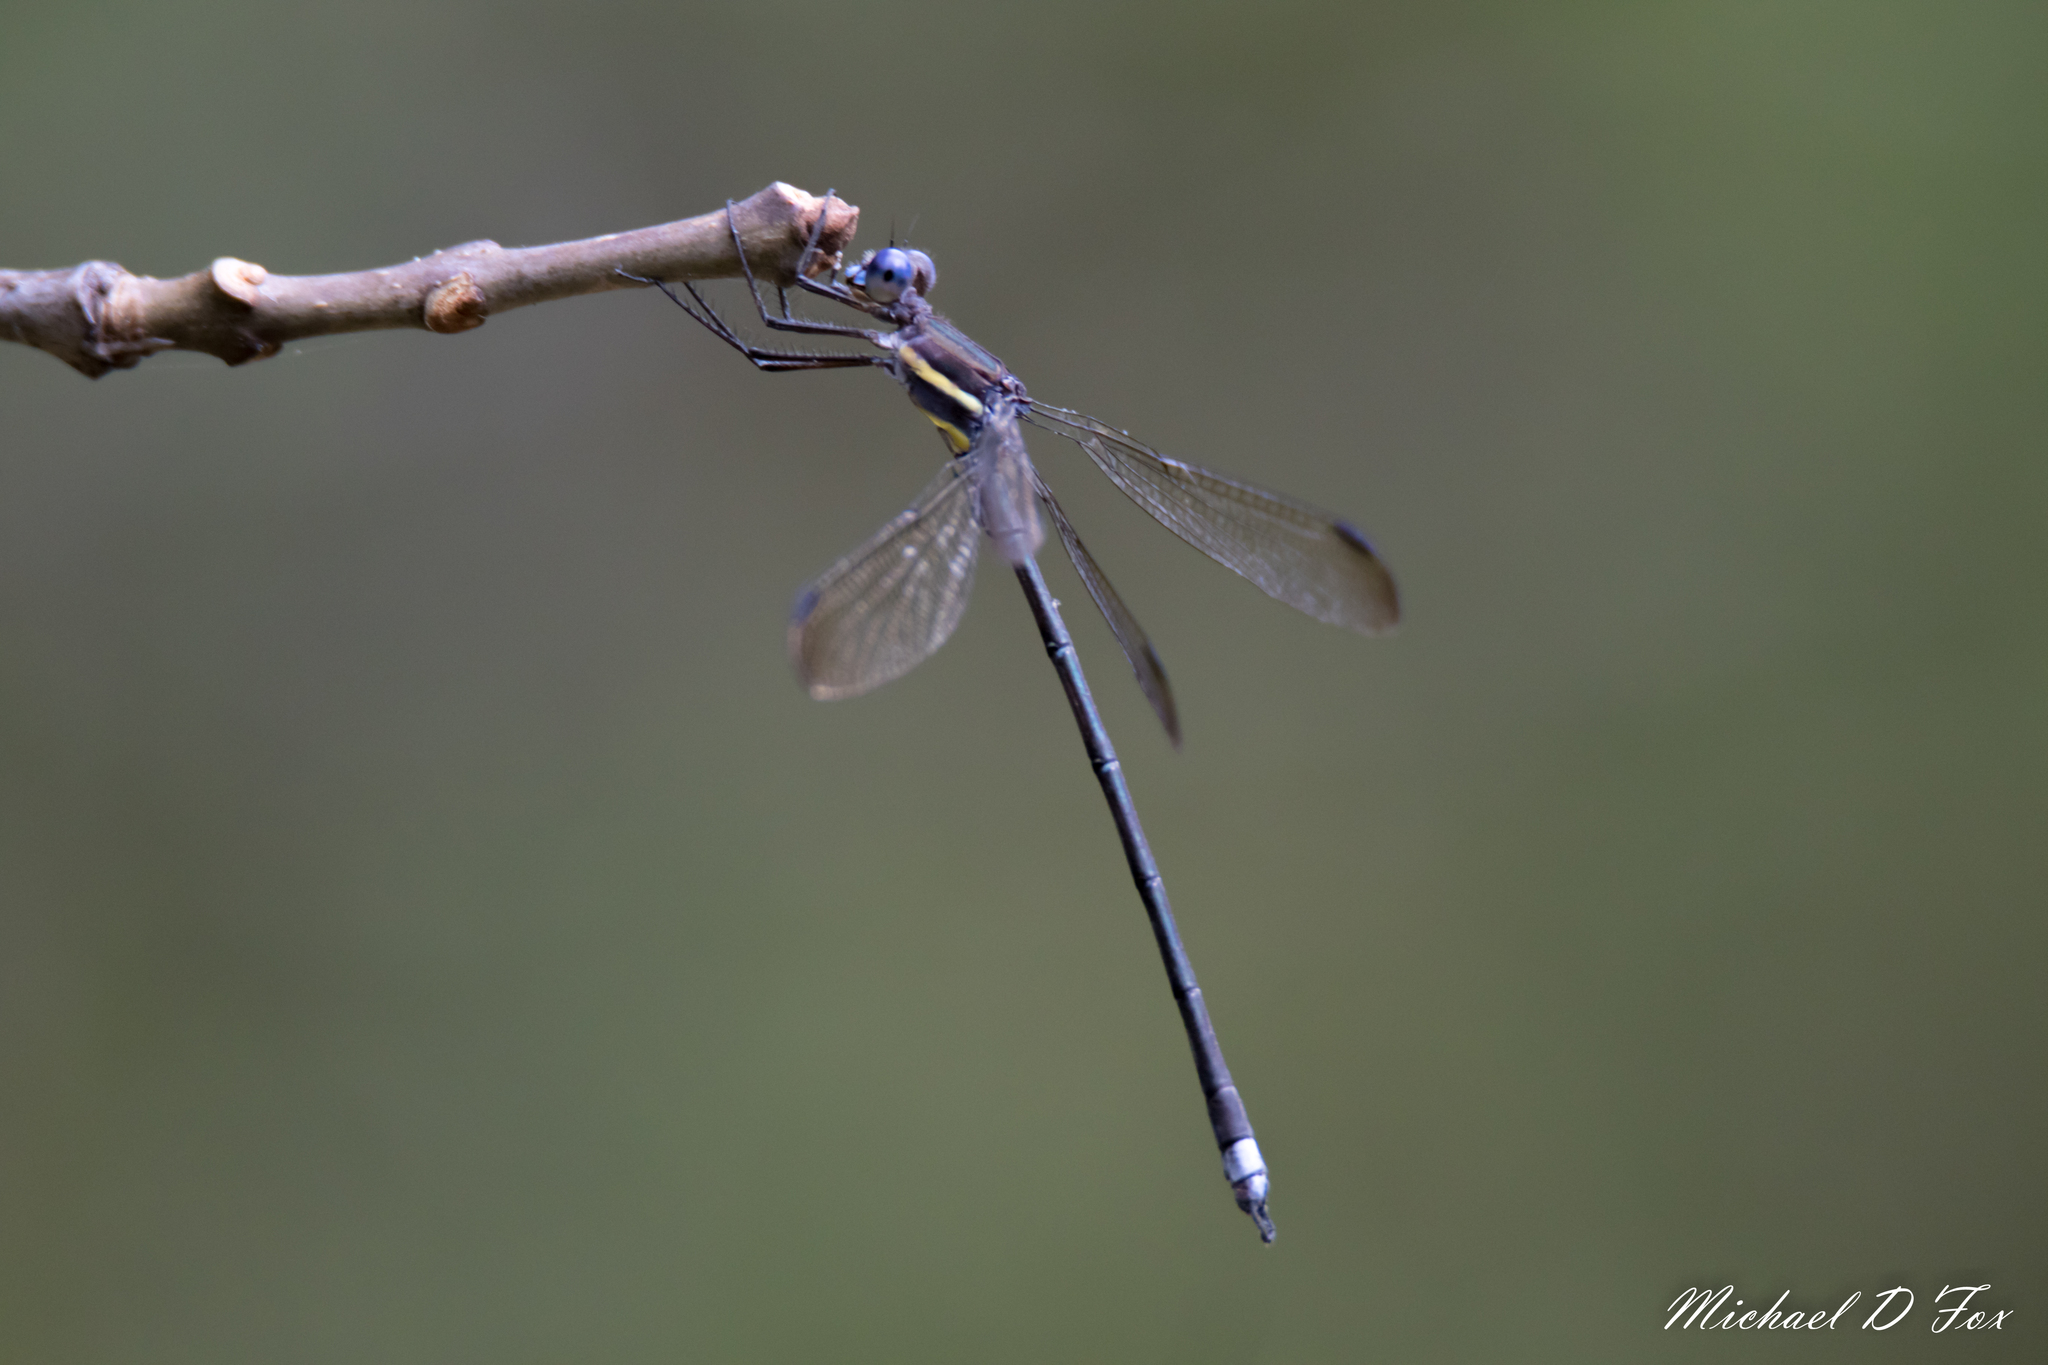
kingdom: Animalia
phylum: Arthropoda
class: Insecta
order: Odonata
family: Lestidae
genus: Archilestes
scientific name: Archilestes grandis
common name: Great spreadwing
